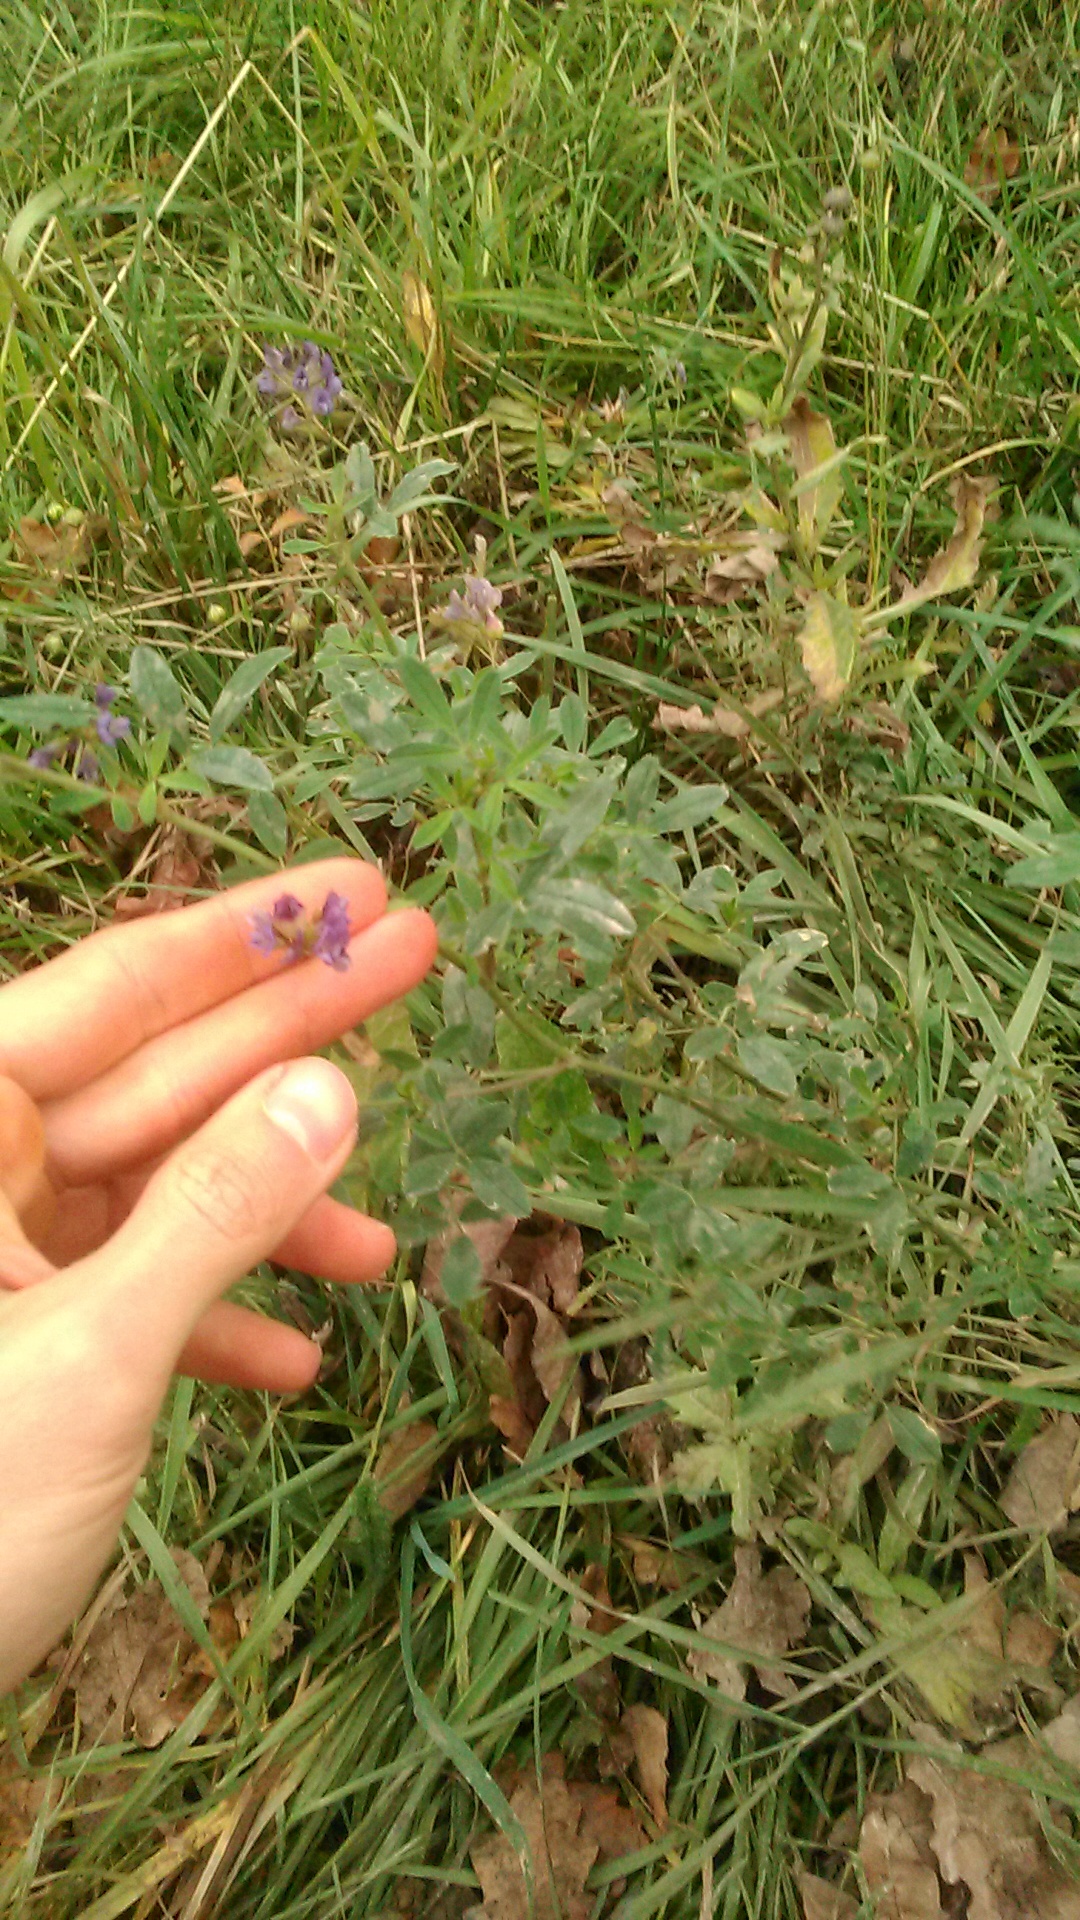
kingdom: Plantae
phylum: Tracheophyta
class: Magnoliopsida
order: Fabales
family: Fabaceae
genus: Medicago
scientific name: Medicago sativa
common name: Alfalfa
